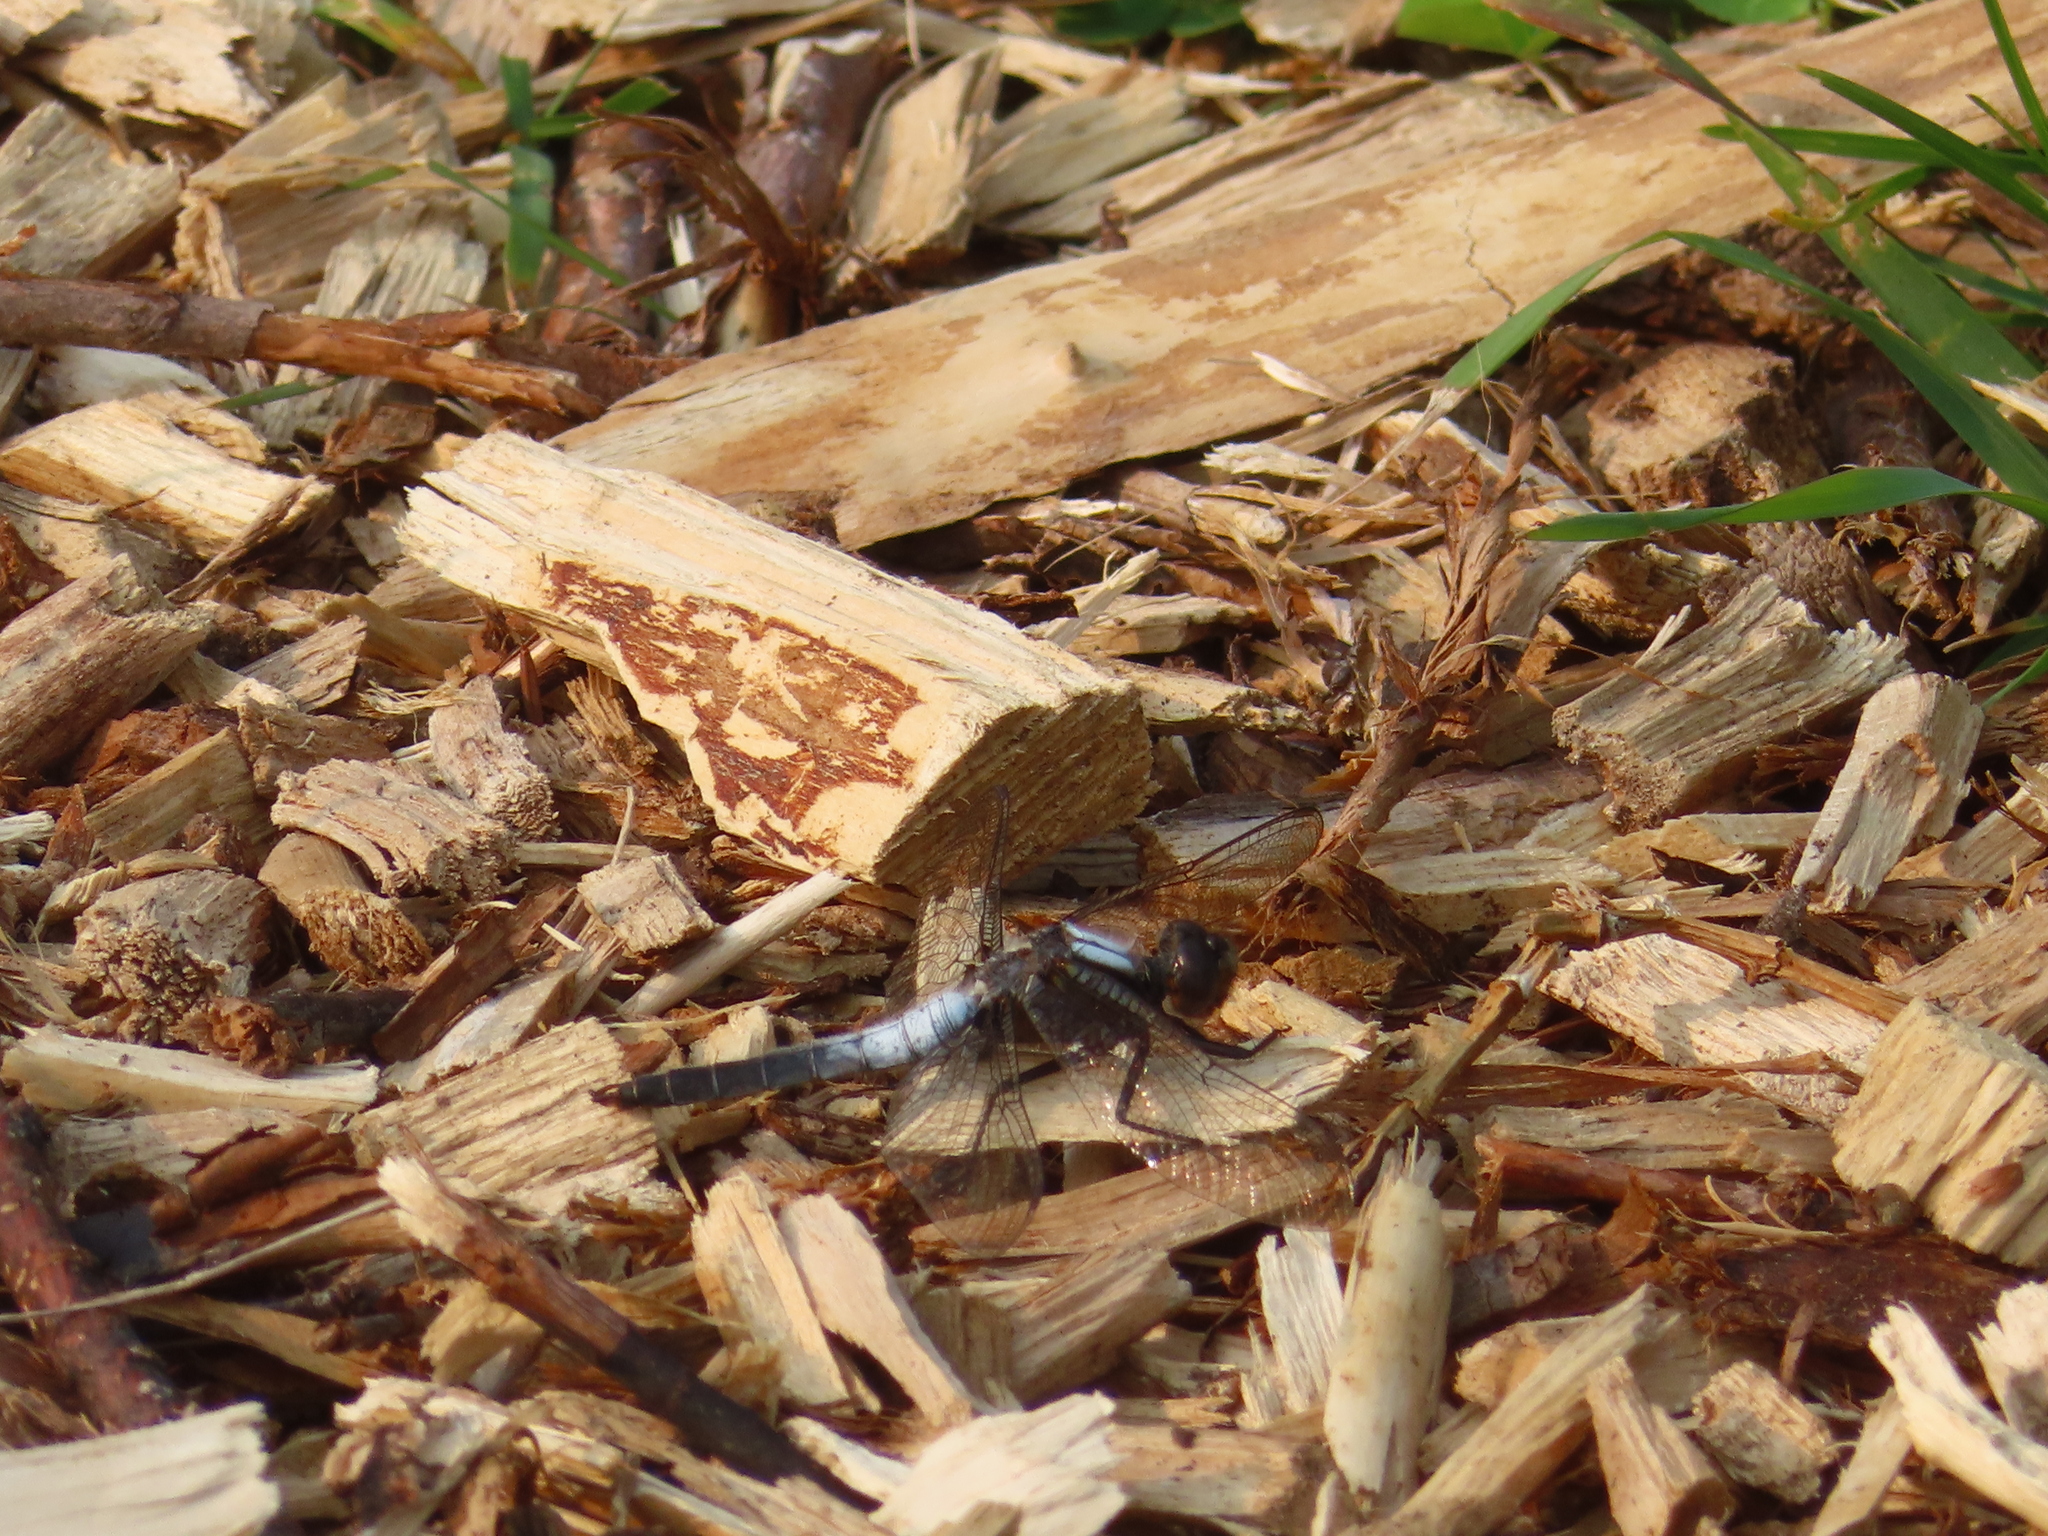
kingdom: Animalia
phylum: Arthropoda
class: Insecta
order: Odonata
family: Libellulidae
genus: Ladona
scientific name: Ladona julia
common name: Chalk-fronted corporal
